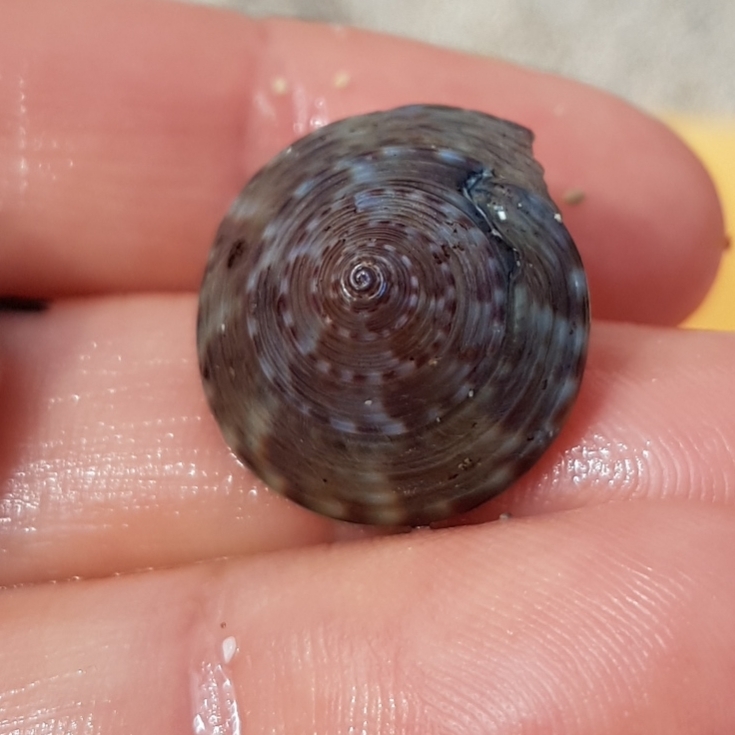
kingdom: Animalia
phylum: Mollusca
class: Gastropoda
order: Trochida
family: Calliostomatidae
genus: Calliostoma
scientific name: Calliostoma zizyphinum
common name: Painted top shell
